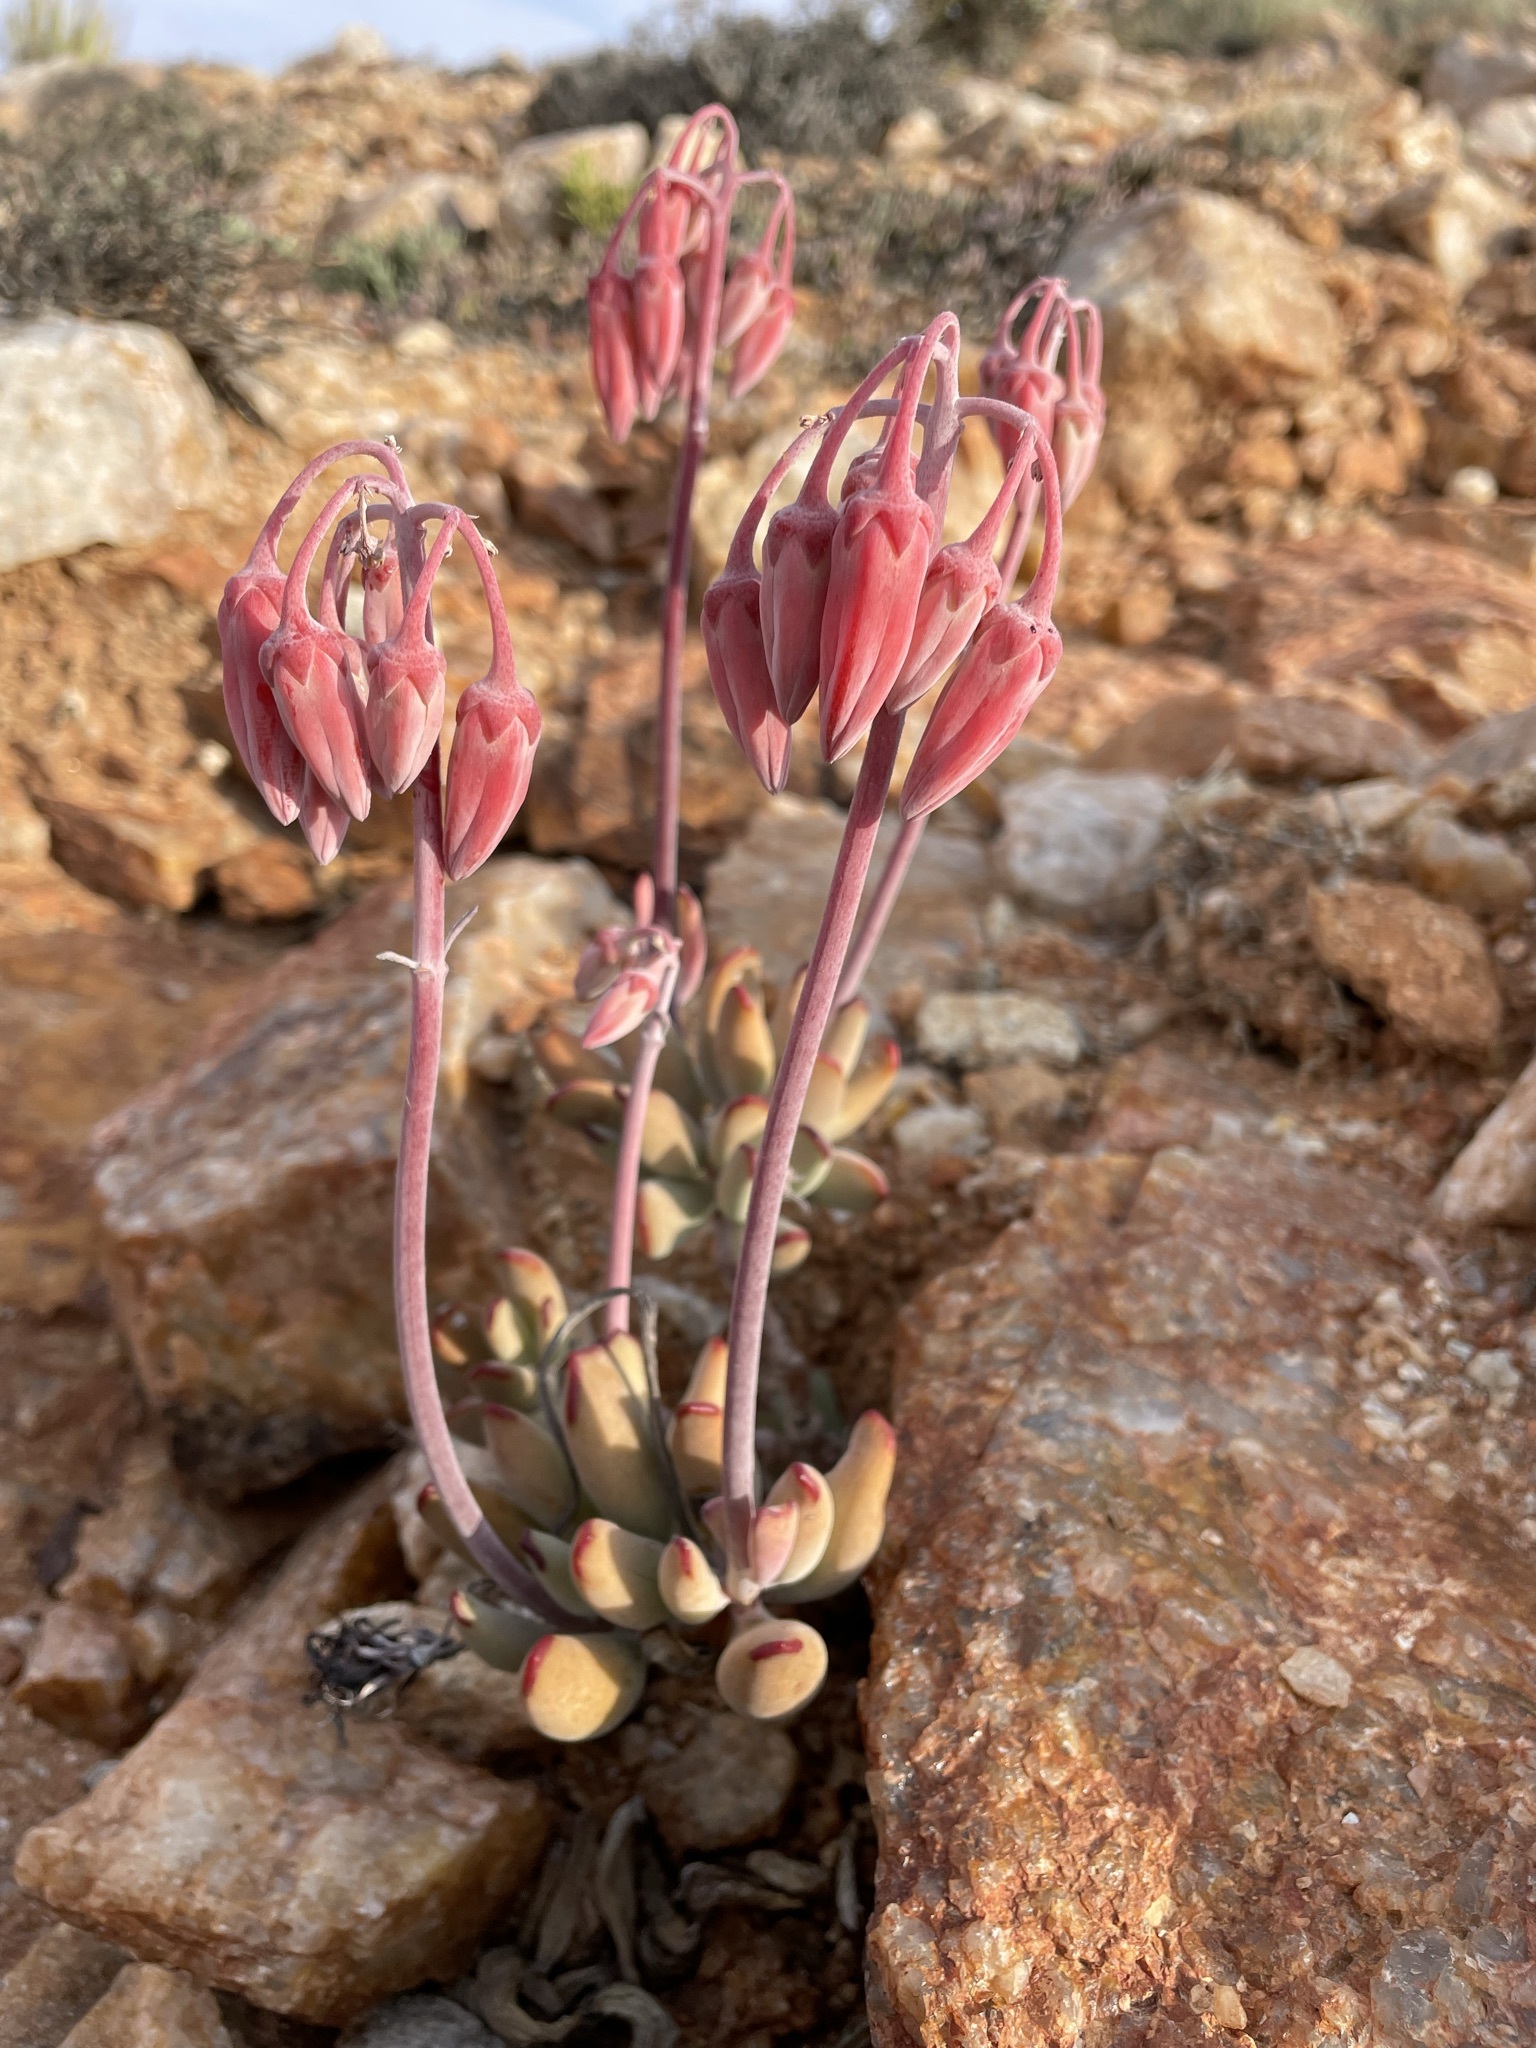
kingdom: Plantae
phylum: Tracheophyta
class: Magnoliopsida
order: Saxifragales
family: Crassulaceae
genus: Cotyledon
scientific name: Cotyledon orbiculata
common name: Pig's ear
